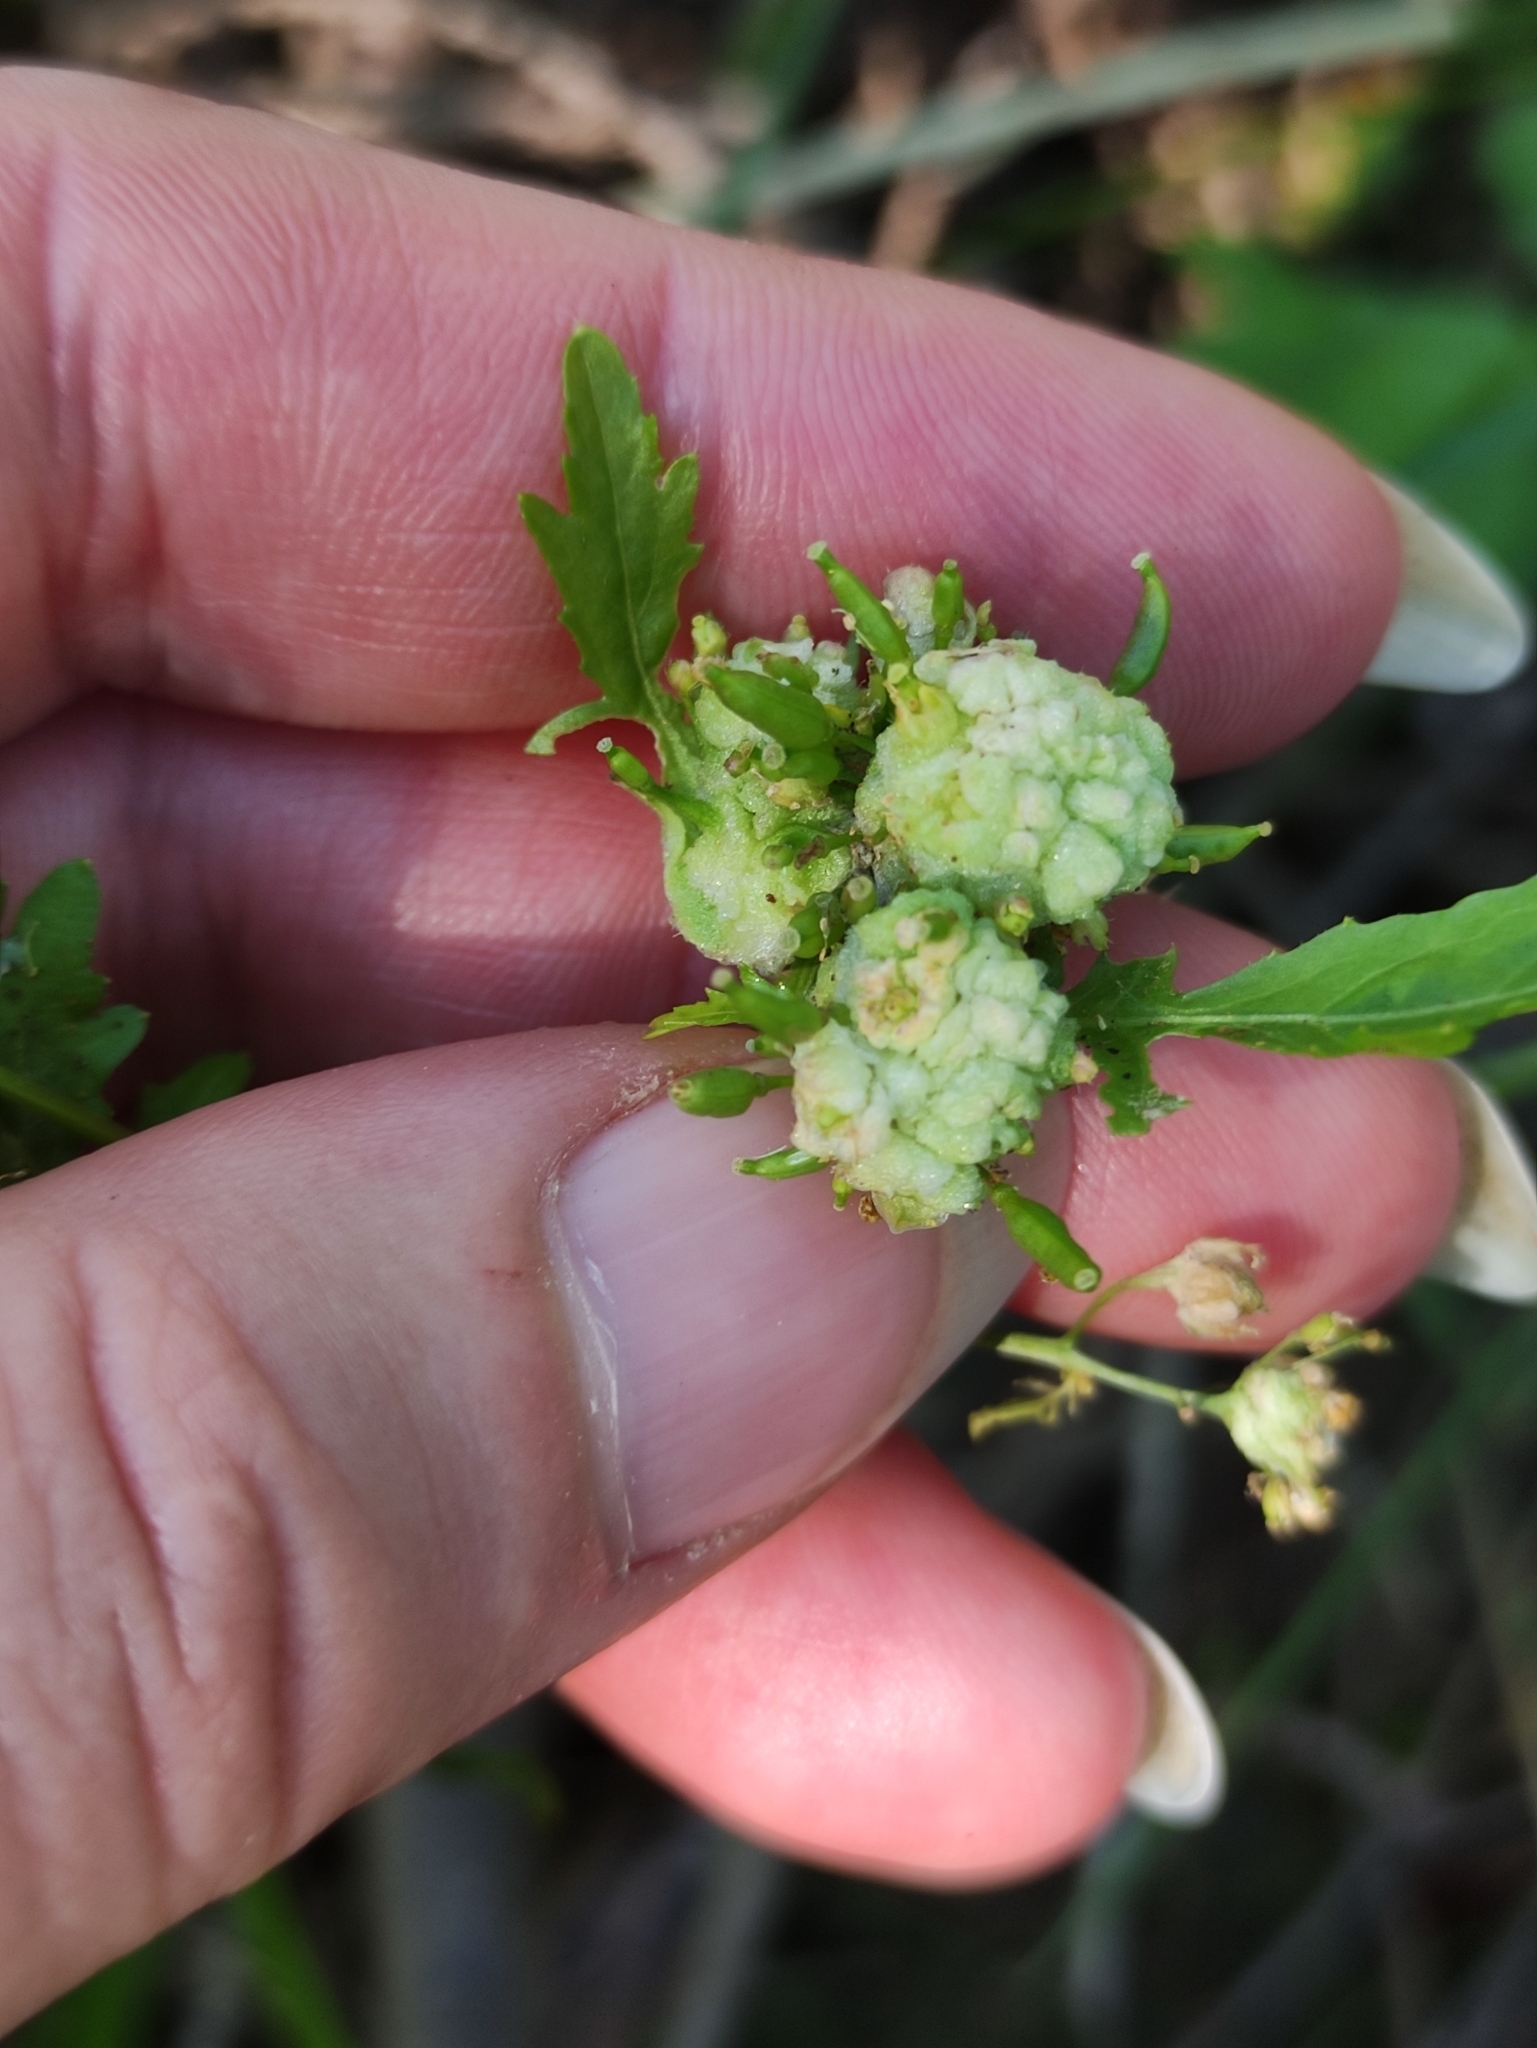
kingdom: Plantae
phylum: Tracheophyta
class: Magnoliopsida
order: Brassicales
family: Brassicaceae
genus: Rorippa
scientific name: Rorippa palustris
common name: Marsh yellow-cress
